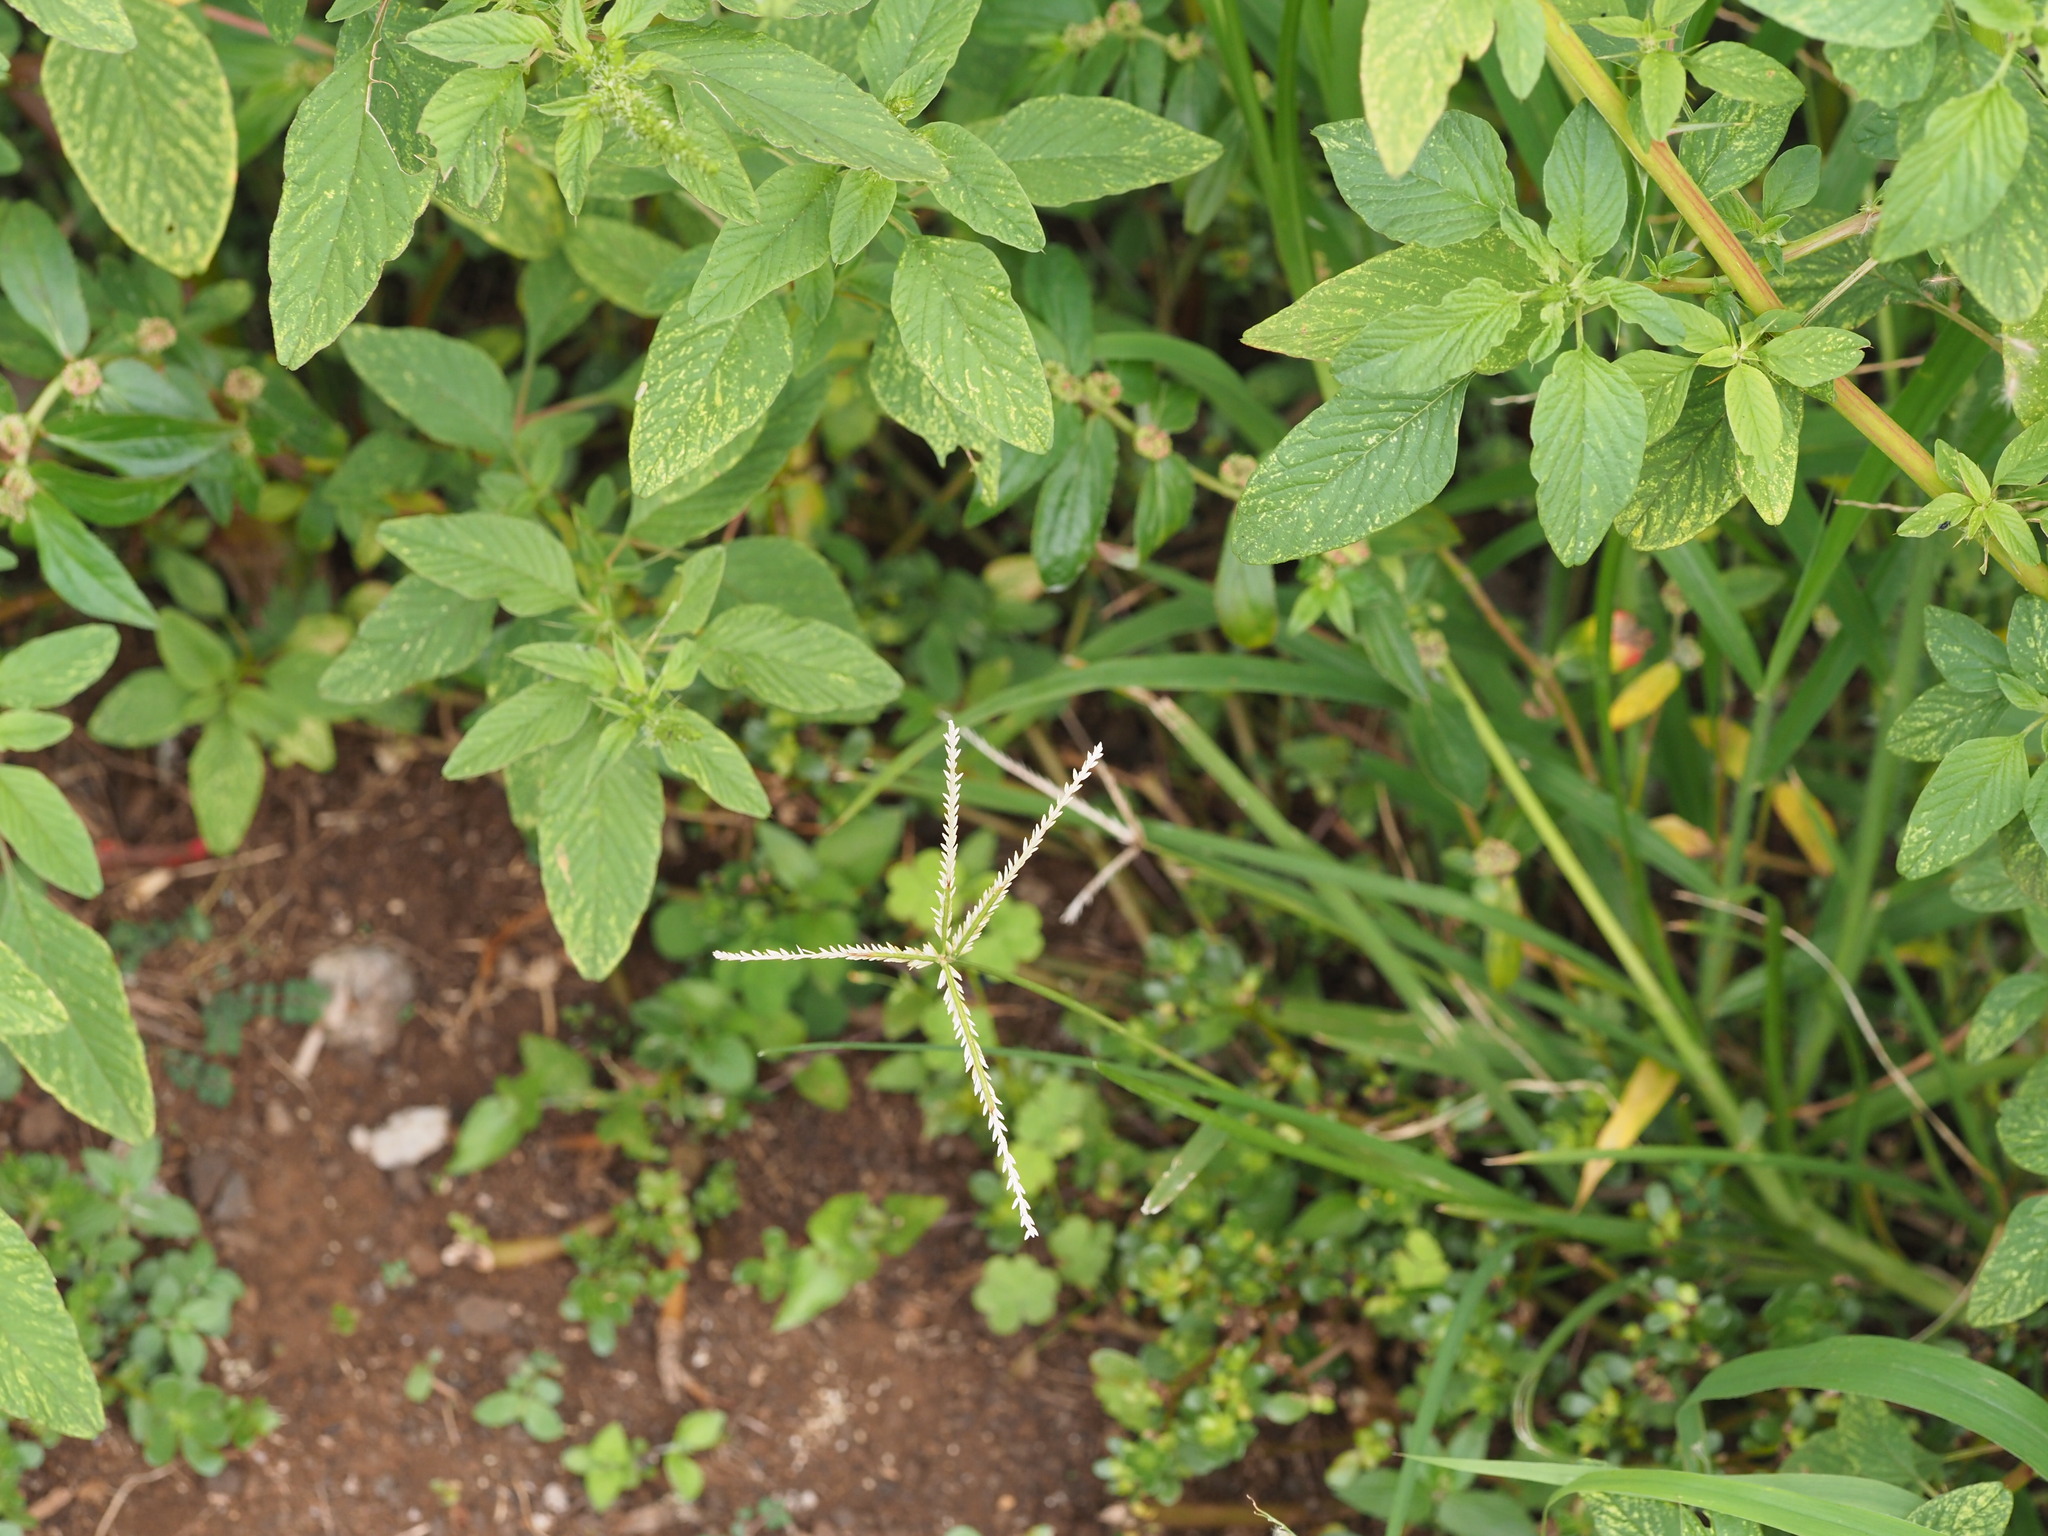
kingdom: Plantae
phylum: Tracheophyta
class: Liliopsida
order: Poales
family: Poaceae
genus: Eleusine
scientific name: Eleusine indica
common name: Yard-grass
